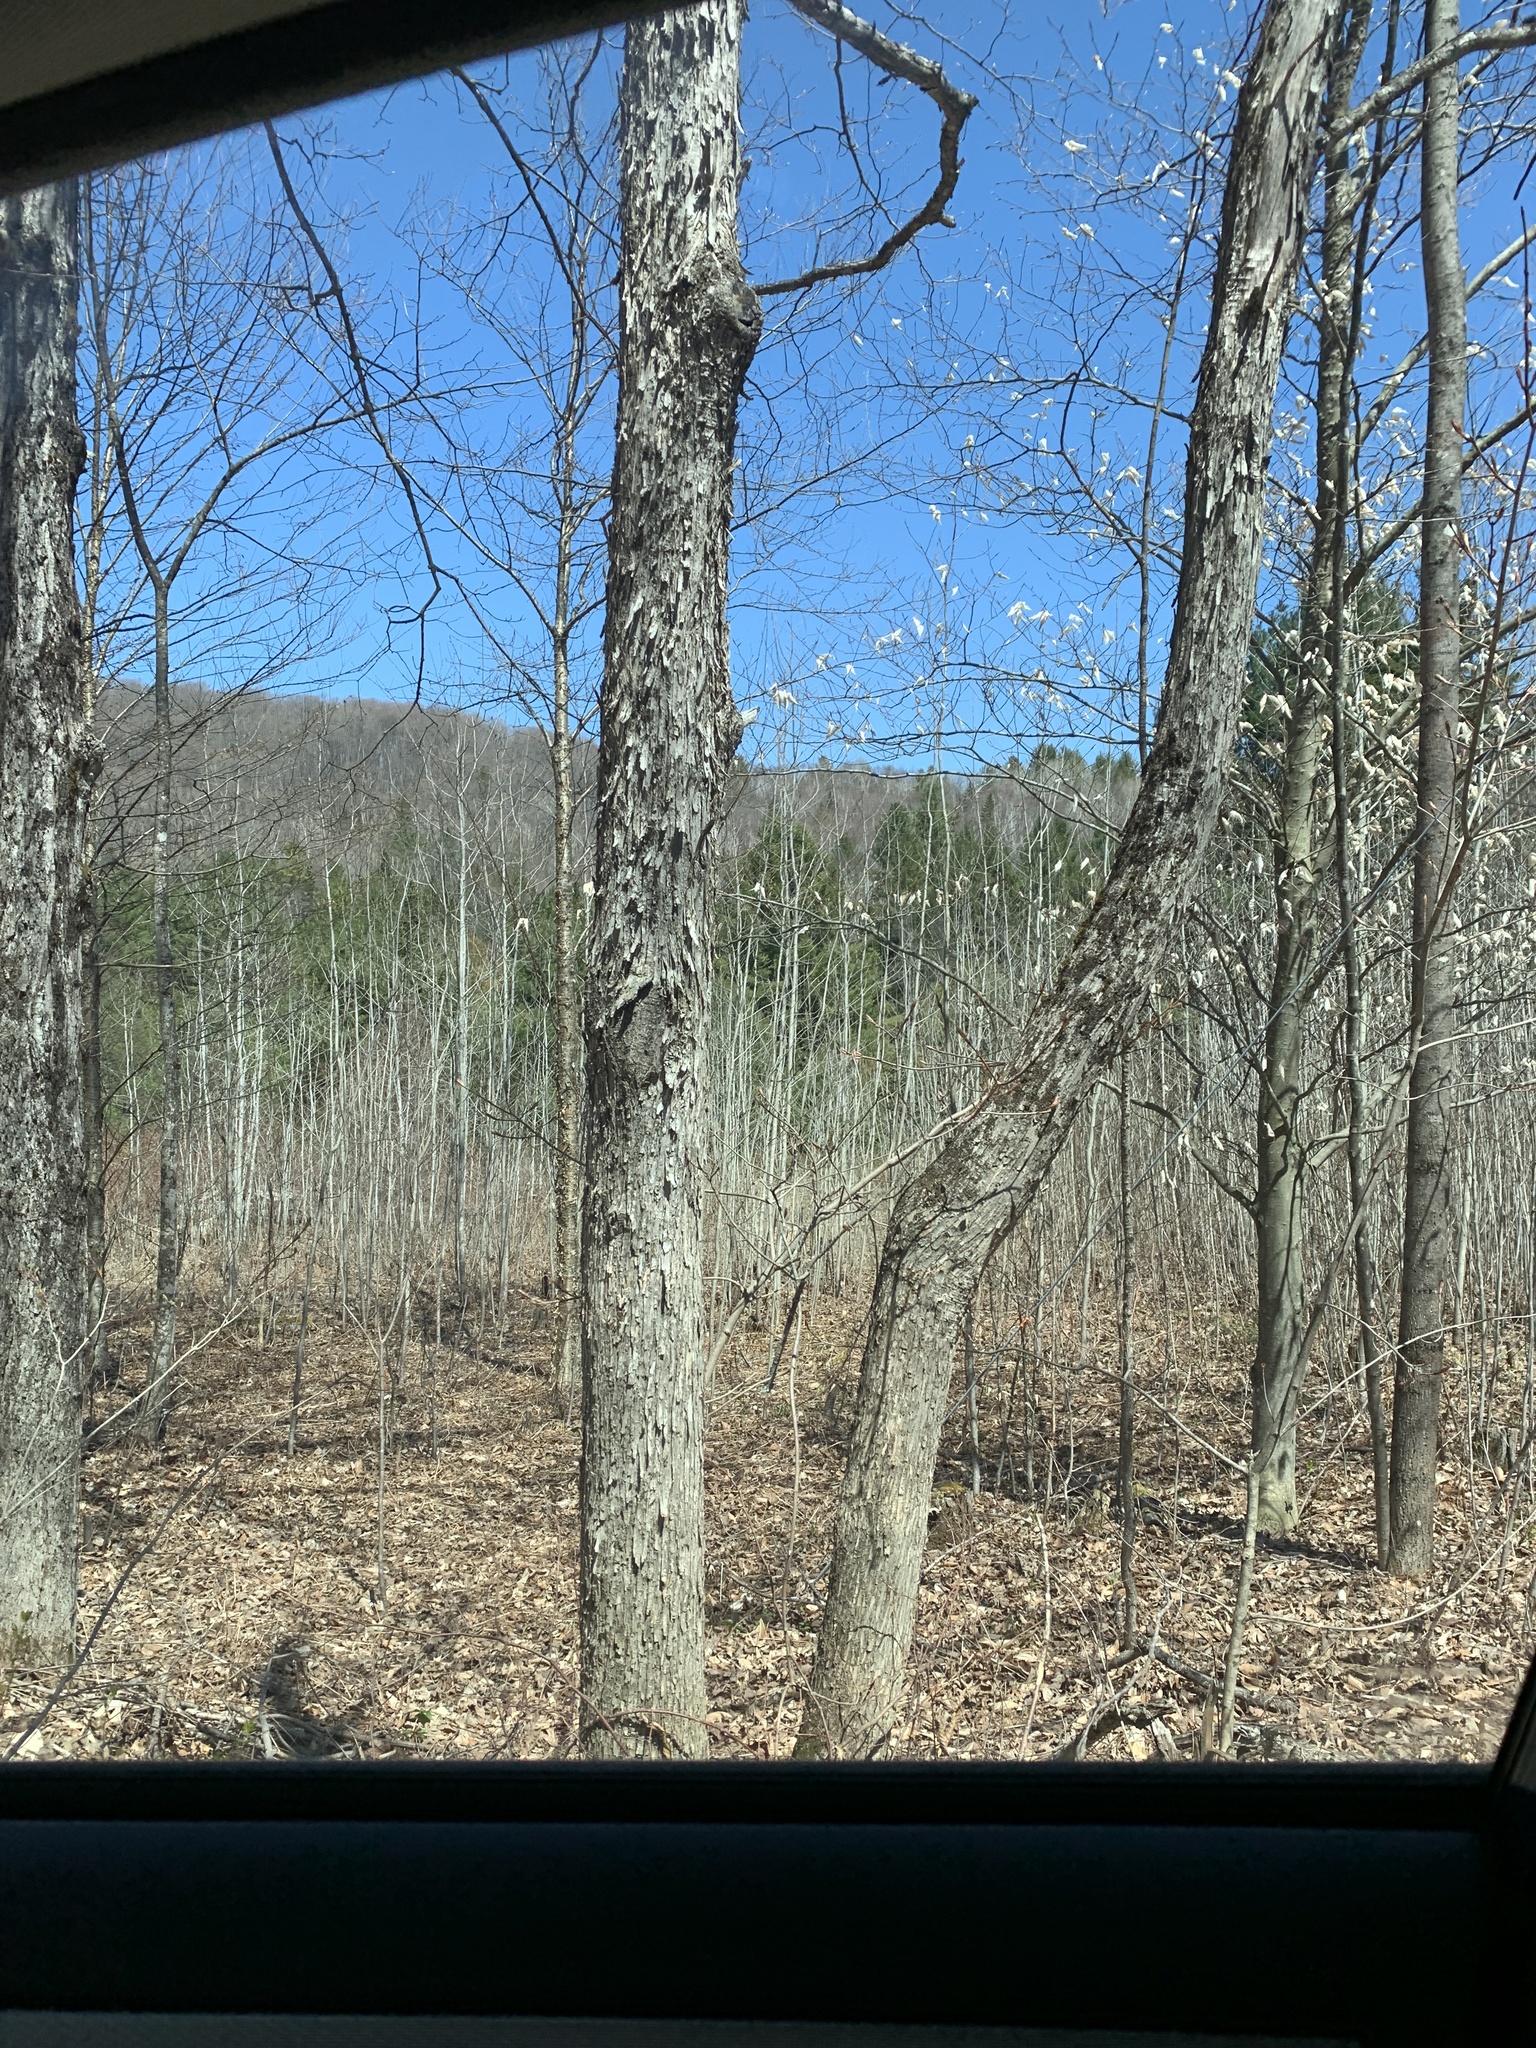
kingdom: Plantae
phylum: Tracheophyta
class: Magnoliopsida
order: Fagales
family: Betulaceae
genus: Ostrya
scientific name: Ostrya virginiana
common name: Ironwood
